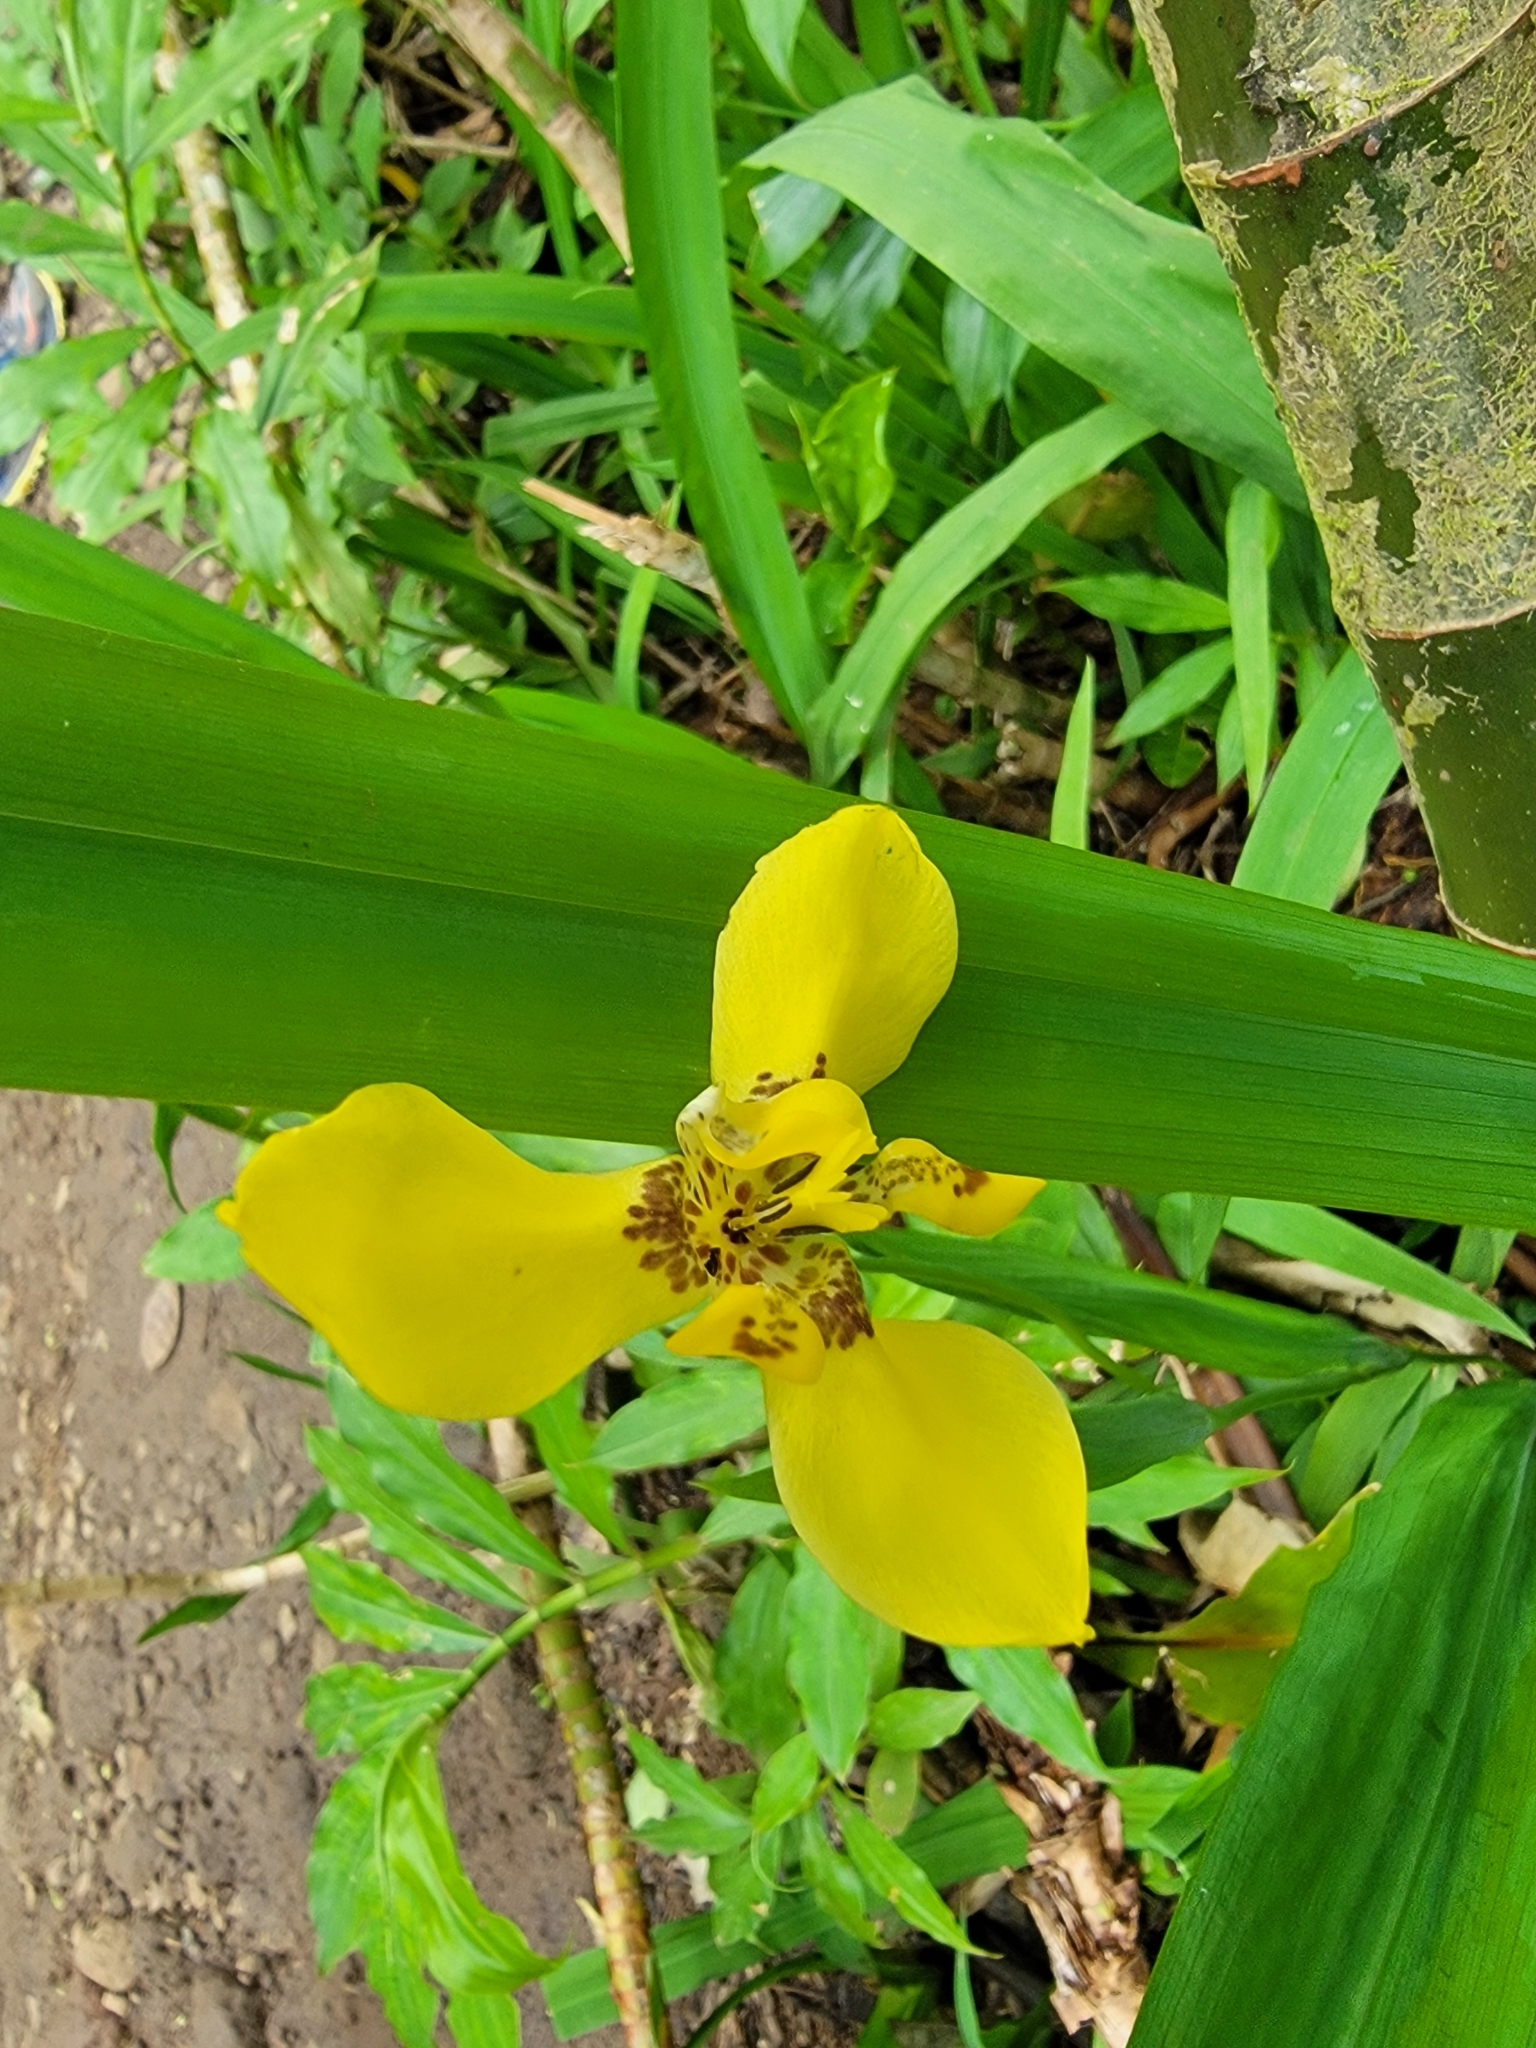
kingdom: Plantae
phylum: Tracheophyta
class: Liliopsida
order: Asparagales
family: Iridaceae
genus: Trimezia
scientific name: Trimezia steyermarkii
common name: Trimezia
